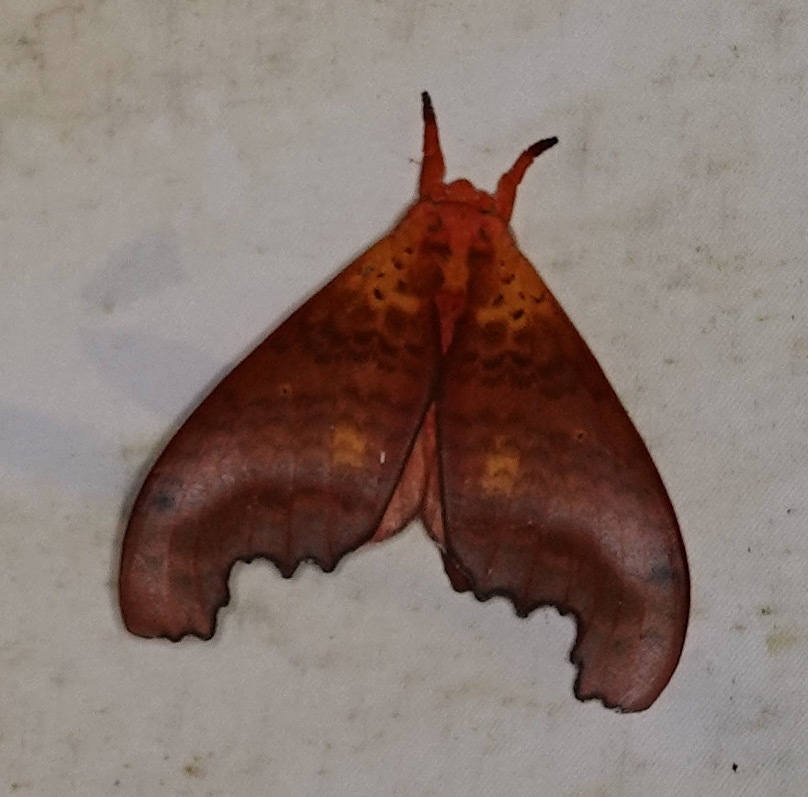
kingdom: Animalia
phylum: Arthropoda
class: Insecta
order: Lepidoptera
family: Notodontidae
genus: Euhampsonia
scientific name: Euhampsonia gigantea
